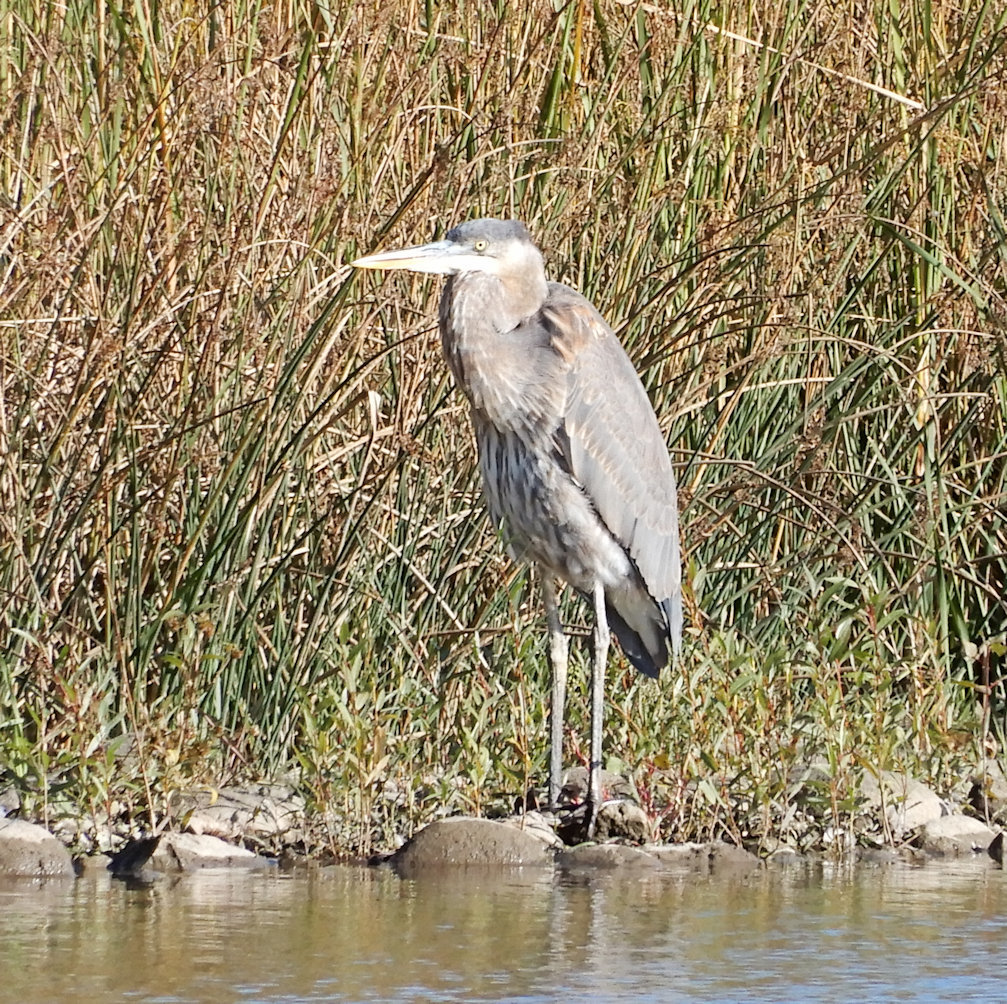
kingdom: Animalia
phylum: Chordata
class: Aves
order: Pelecaniformes
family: Ardeidae
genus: Ardea
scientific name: Ardea herodias
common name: Great blue heron
